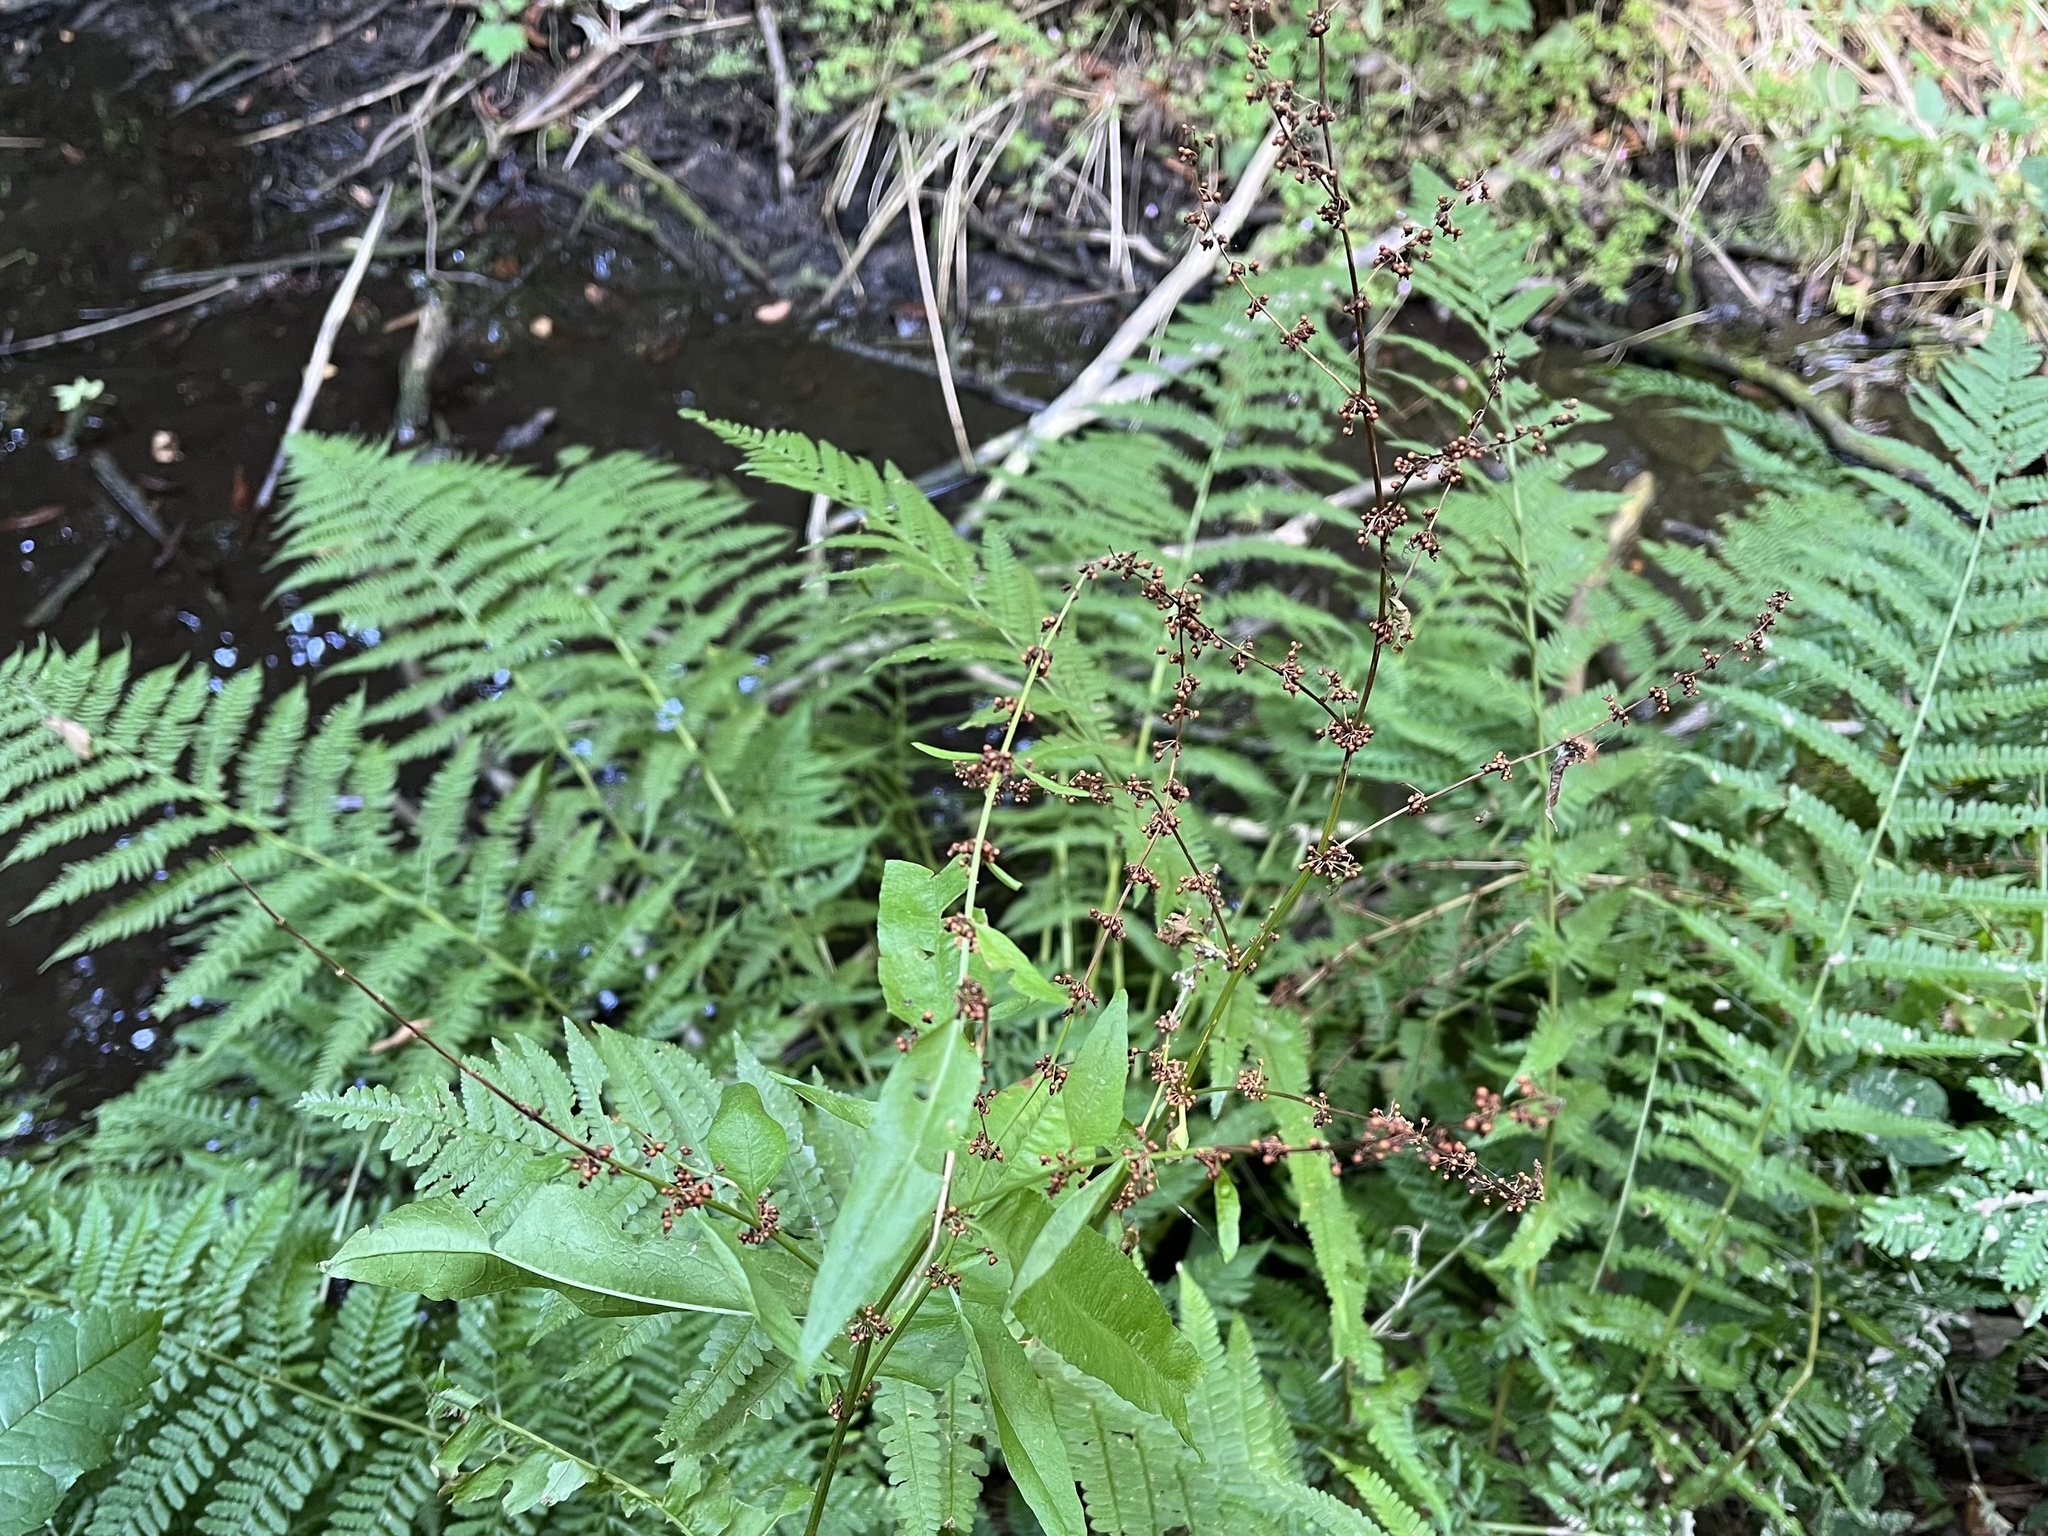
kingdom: Plantae
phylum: Tracheophyta
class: Magnoliopsida
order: Caryophyllales
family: Polygonaceae
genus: Rumex
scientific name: Rumex sanguineus
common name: Wood dock
